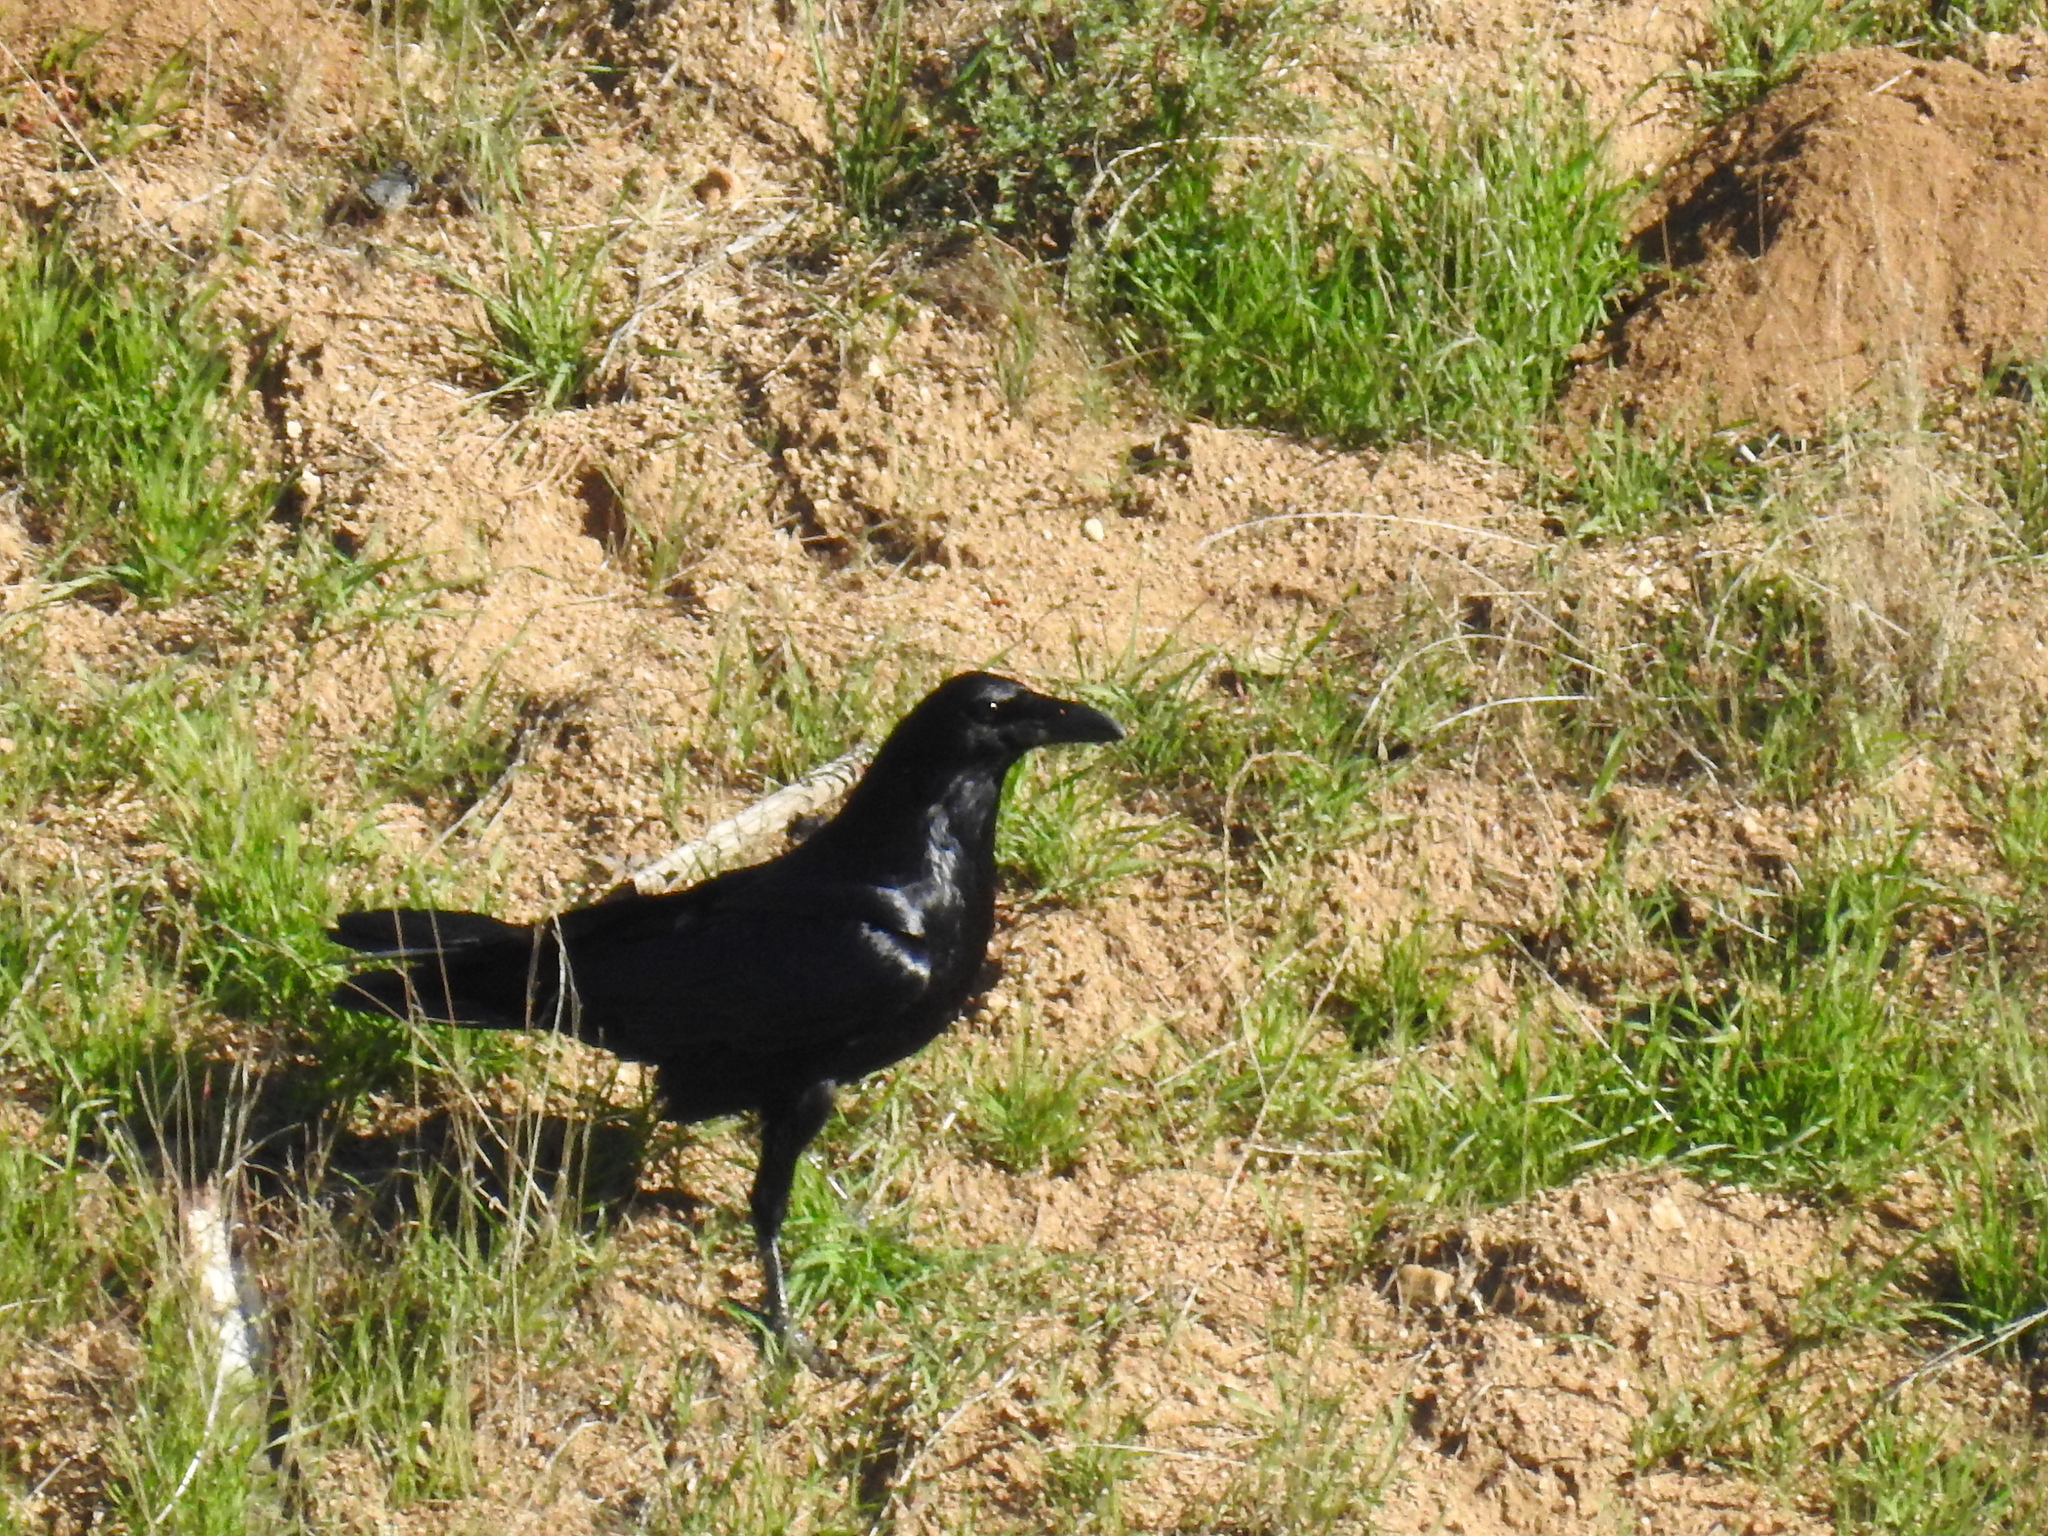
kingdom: Animalia
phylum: Chordata
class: Aves
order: Passeriformes
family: Corvidae
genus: Corvus
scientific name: Corvus corax
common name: Common raven
